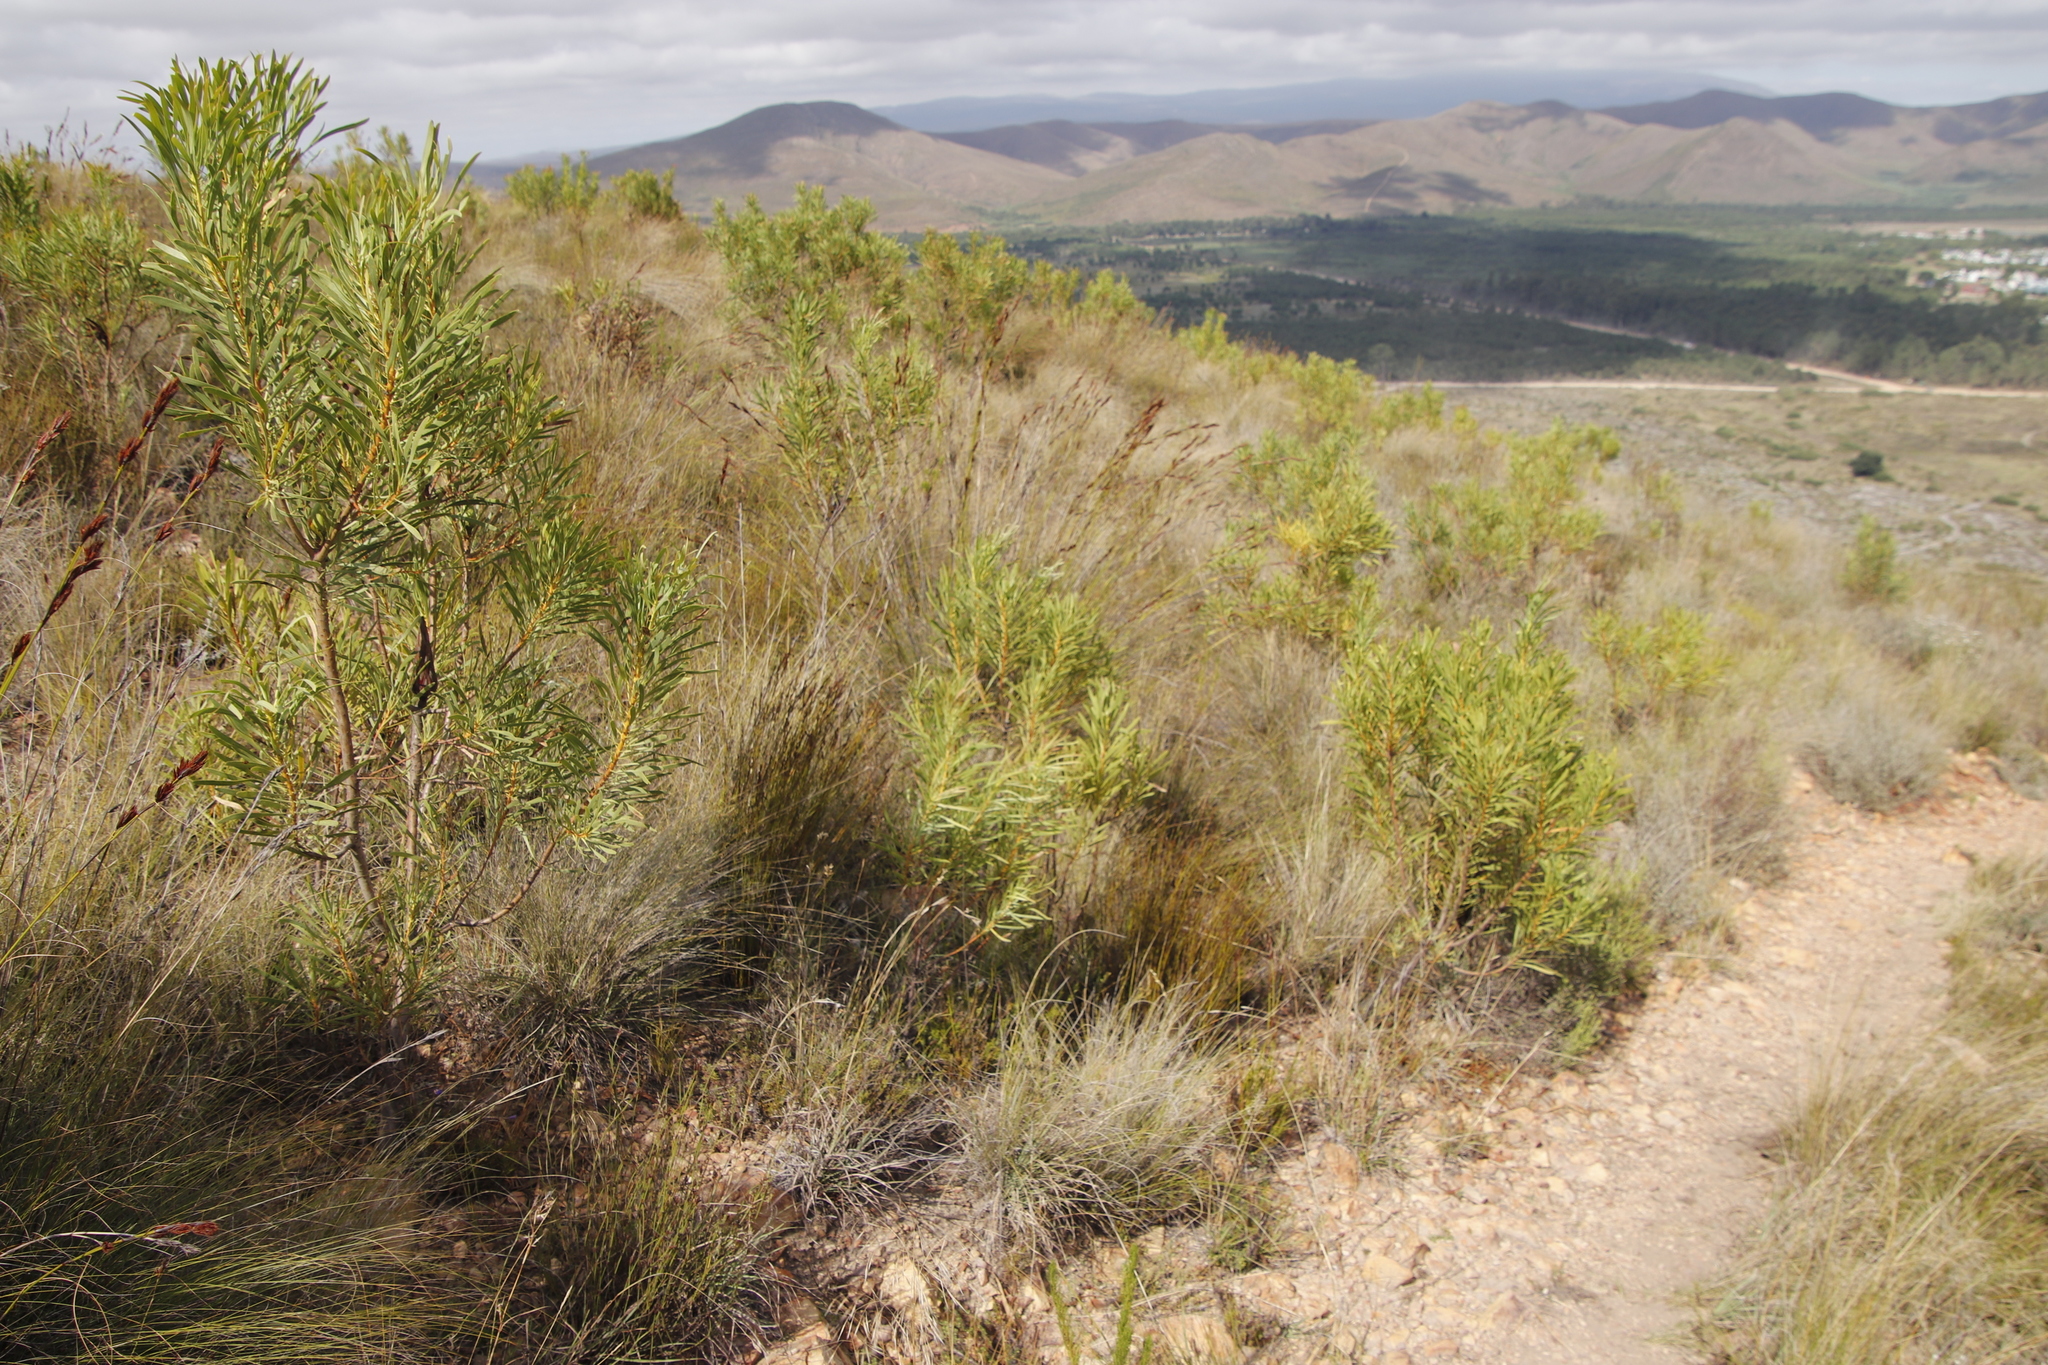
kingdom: Plantae
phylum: Tracheophyta
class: Magnoliopsida
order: Proteales
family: Proteaceae
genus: Protea
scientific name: Protea repens
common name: Sugarbush
